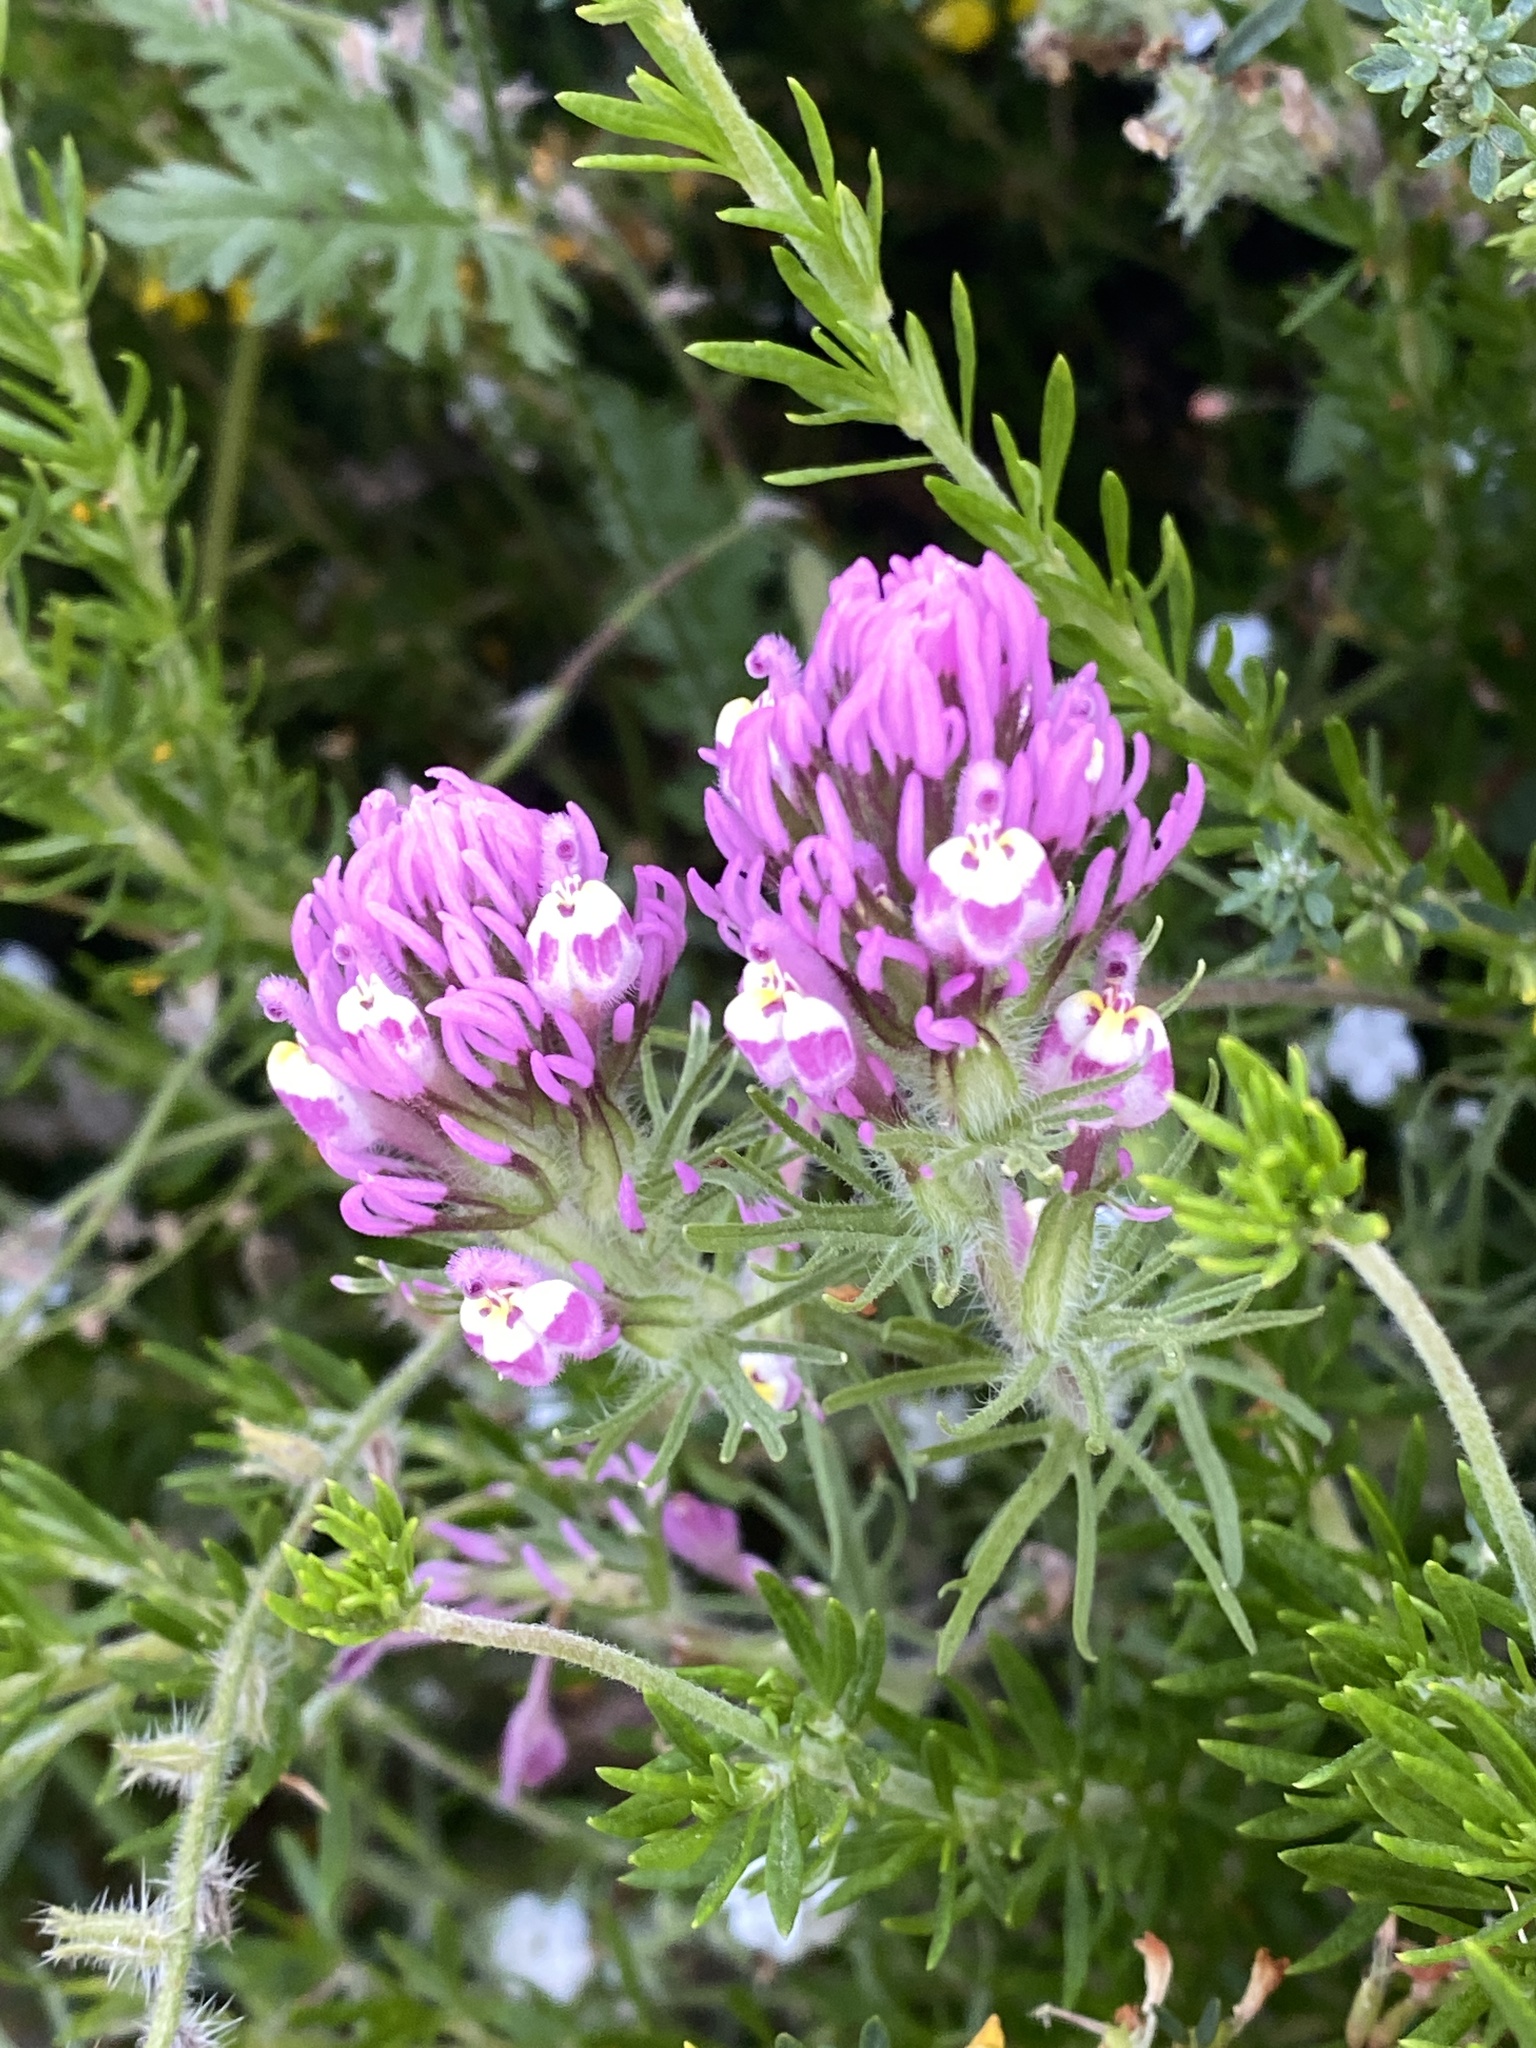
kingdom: Plantae
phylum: Tracheophyta
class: Magnoliopsida
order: Lamiales
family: Orobanchaceae
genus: Castilleja
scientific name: Castilleja exserta
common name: Purple owl-clover
